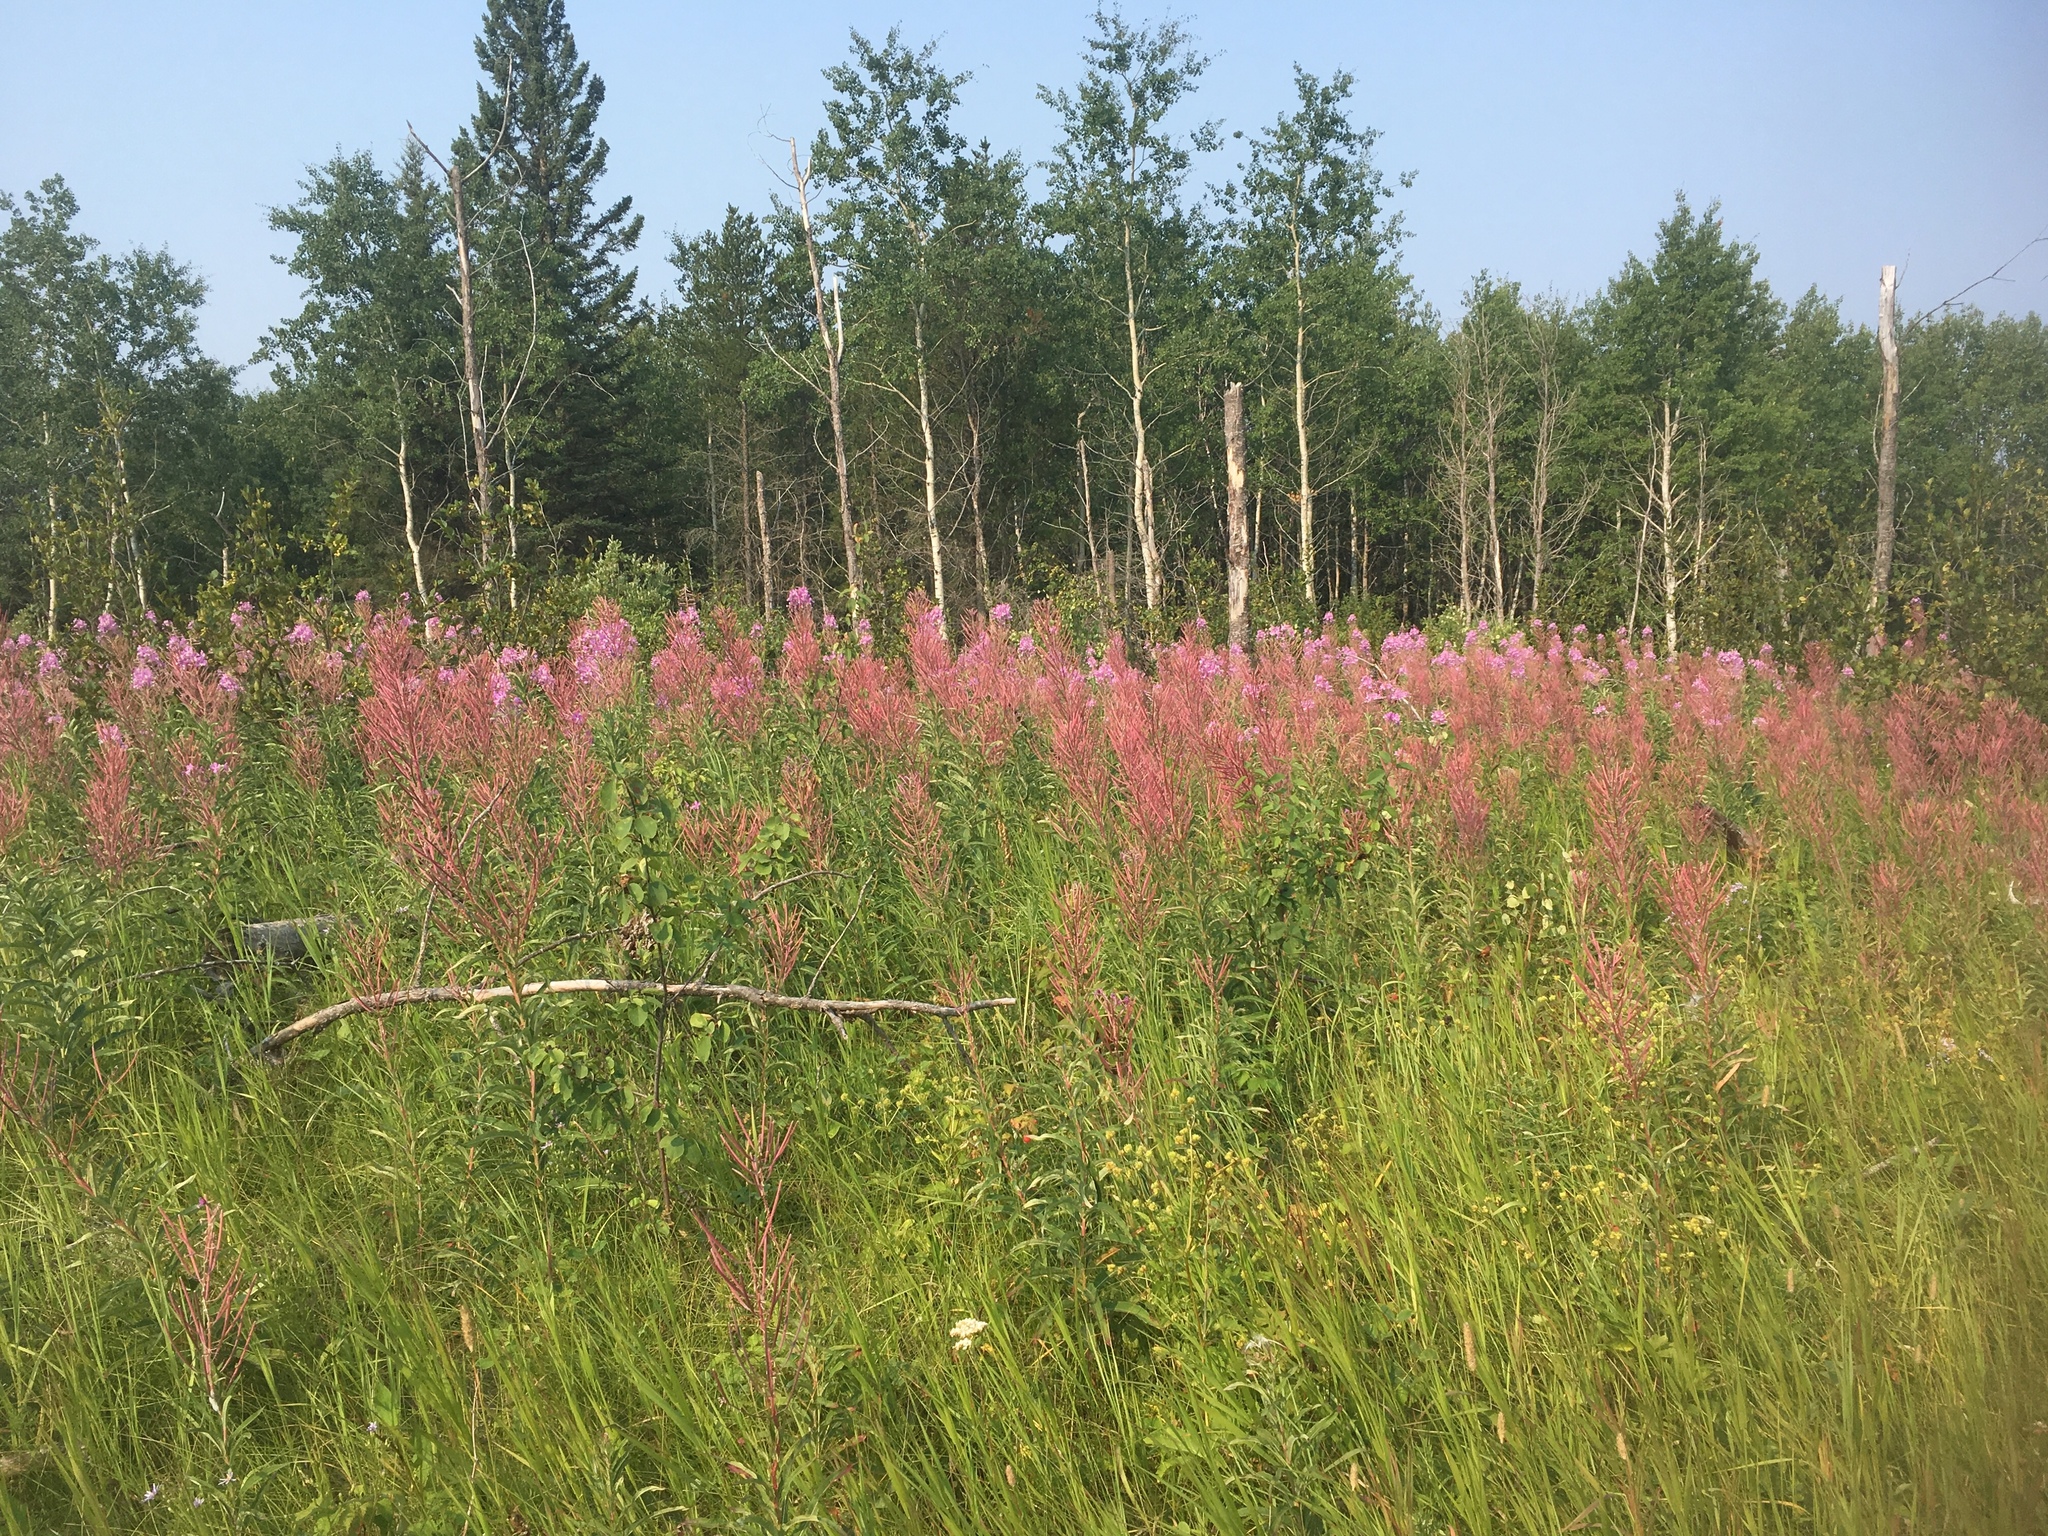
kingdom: Plantae
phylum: Tracheophyta
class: Magnoliopsida
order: Myrtales
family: Onagraceae
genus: Chamaenerion
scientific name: Chamaenerion angustifolium
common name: Fireweed
